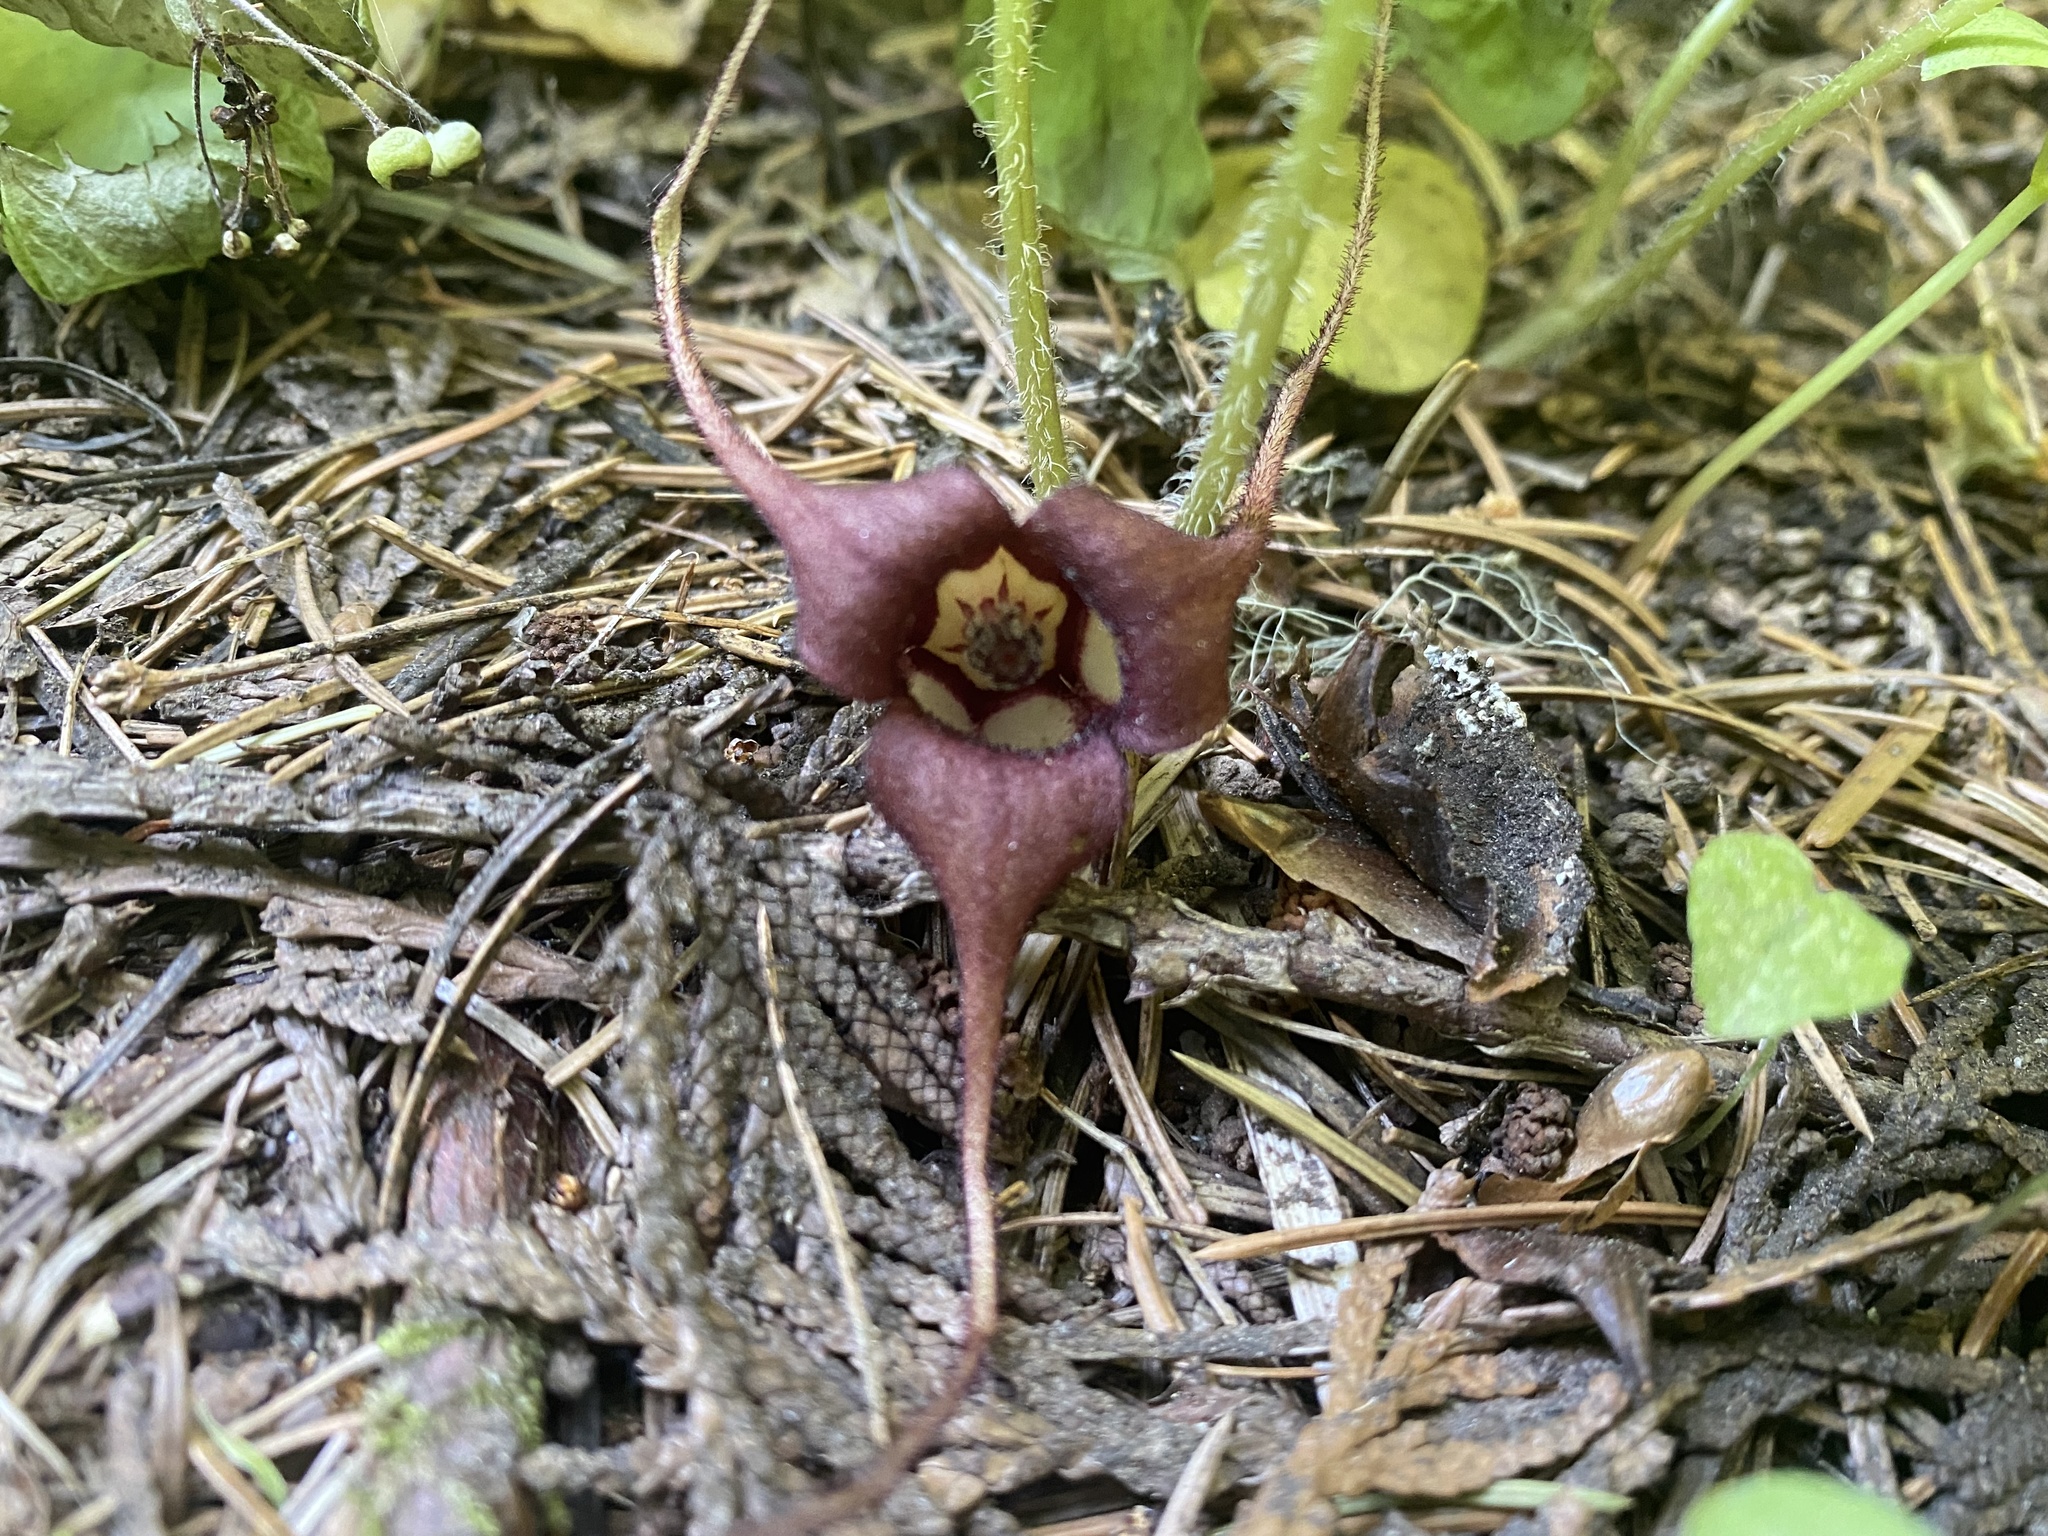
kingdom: Plantae
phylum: Tracheophyta
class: Magnoliopsida
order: Piperales
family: Aristolochiaceae
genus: Asarum
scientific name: Asarum caudatum
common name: Wild ginger
